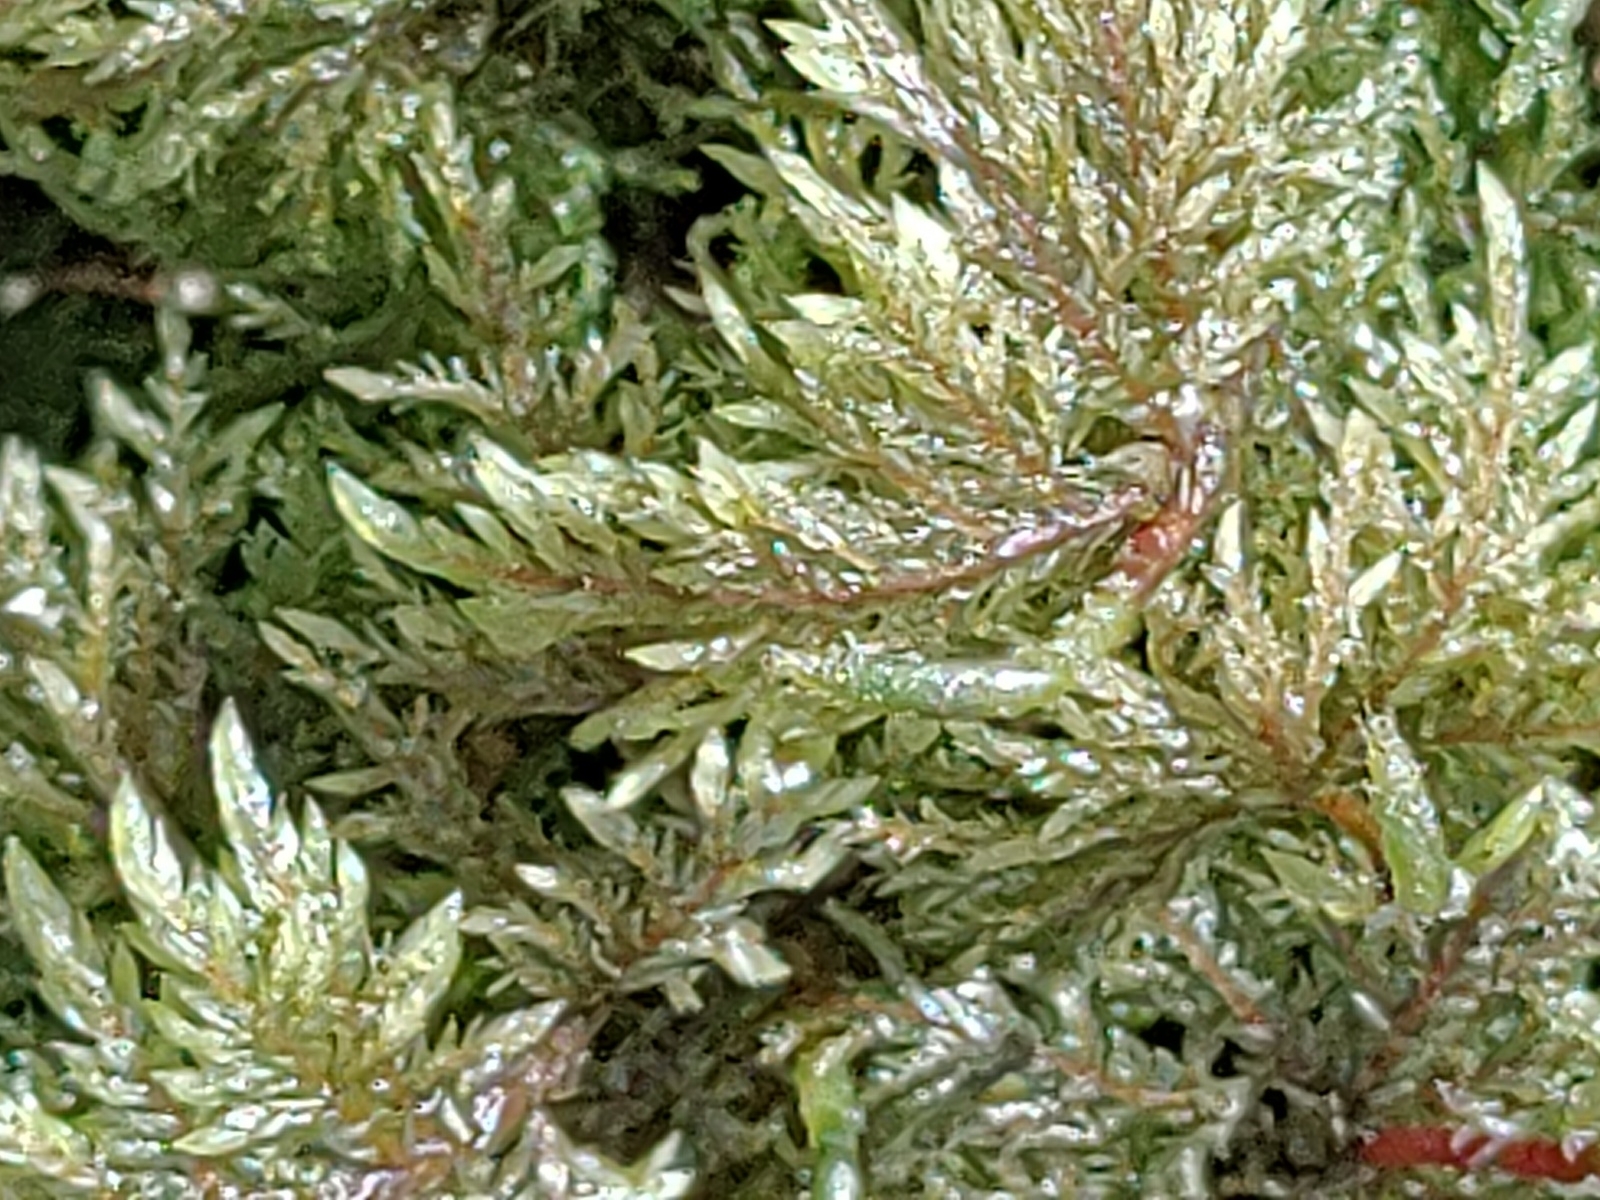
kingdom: Plantae
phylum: Bryophyta
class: Bryopsida
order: Hypnales
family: Hylocomiaceae
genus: Hylocomium
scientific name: Hylocomium splendens
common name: Stairstep moss
